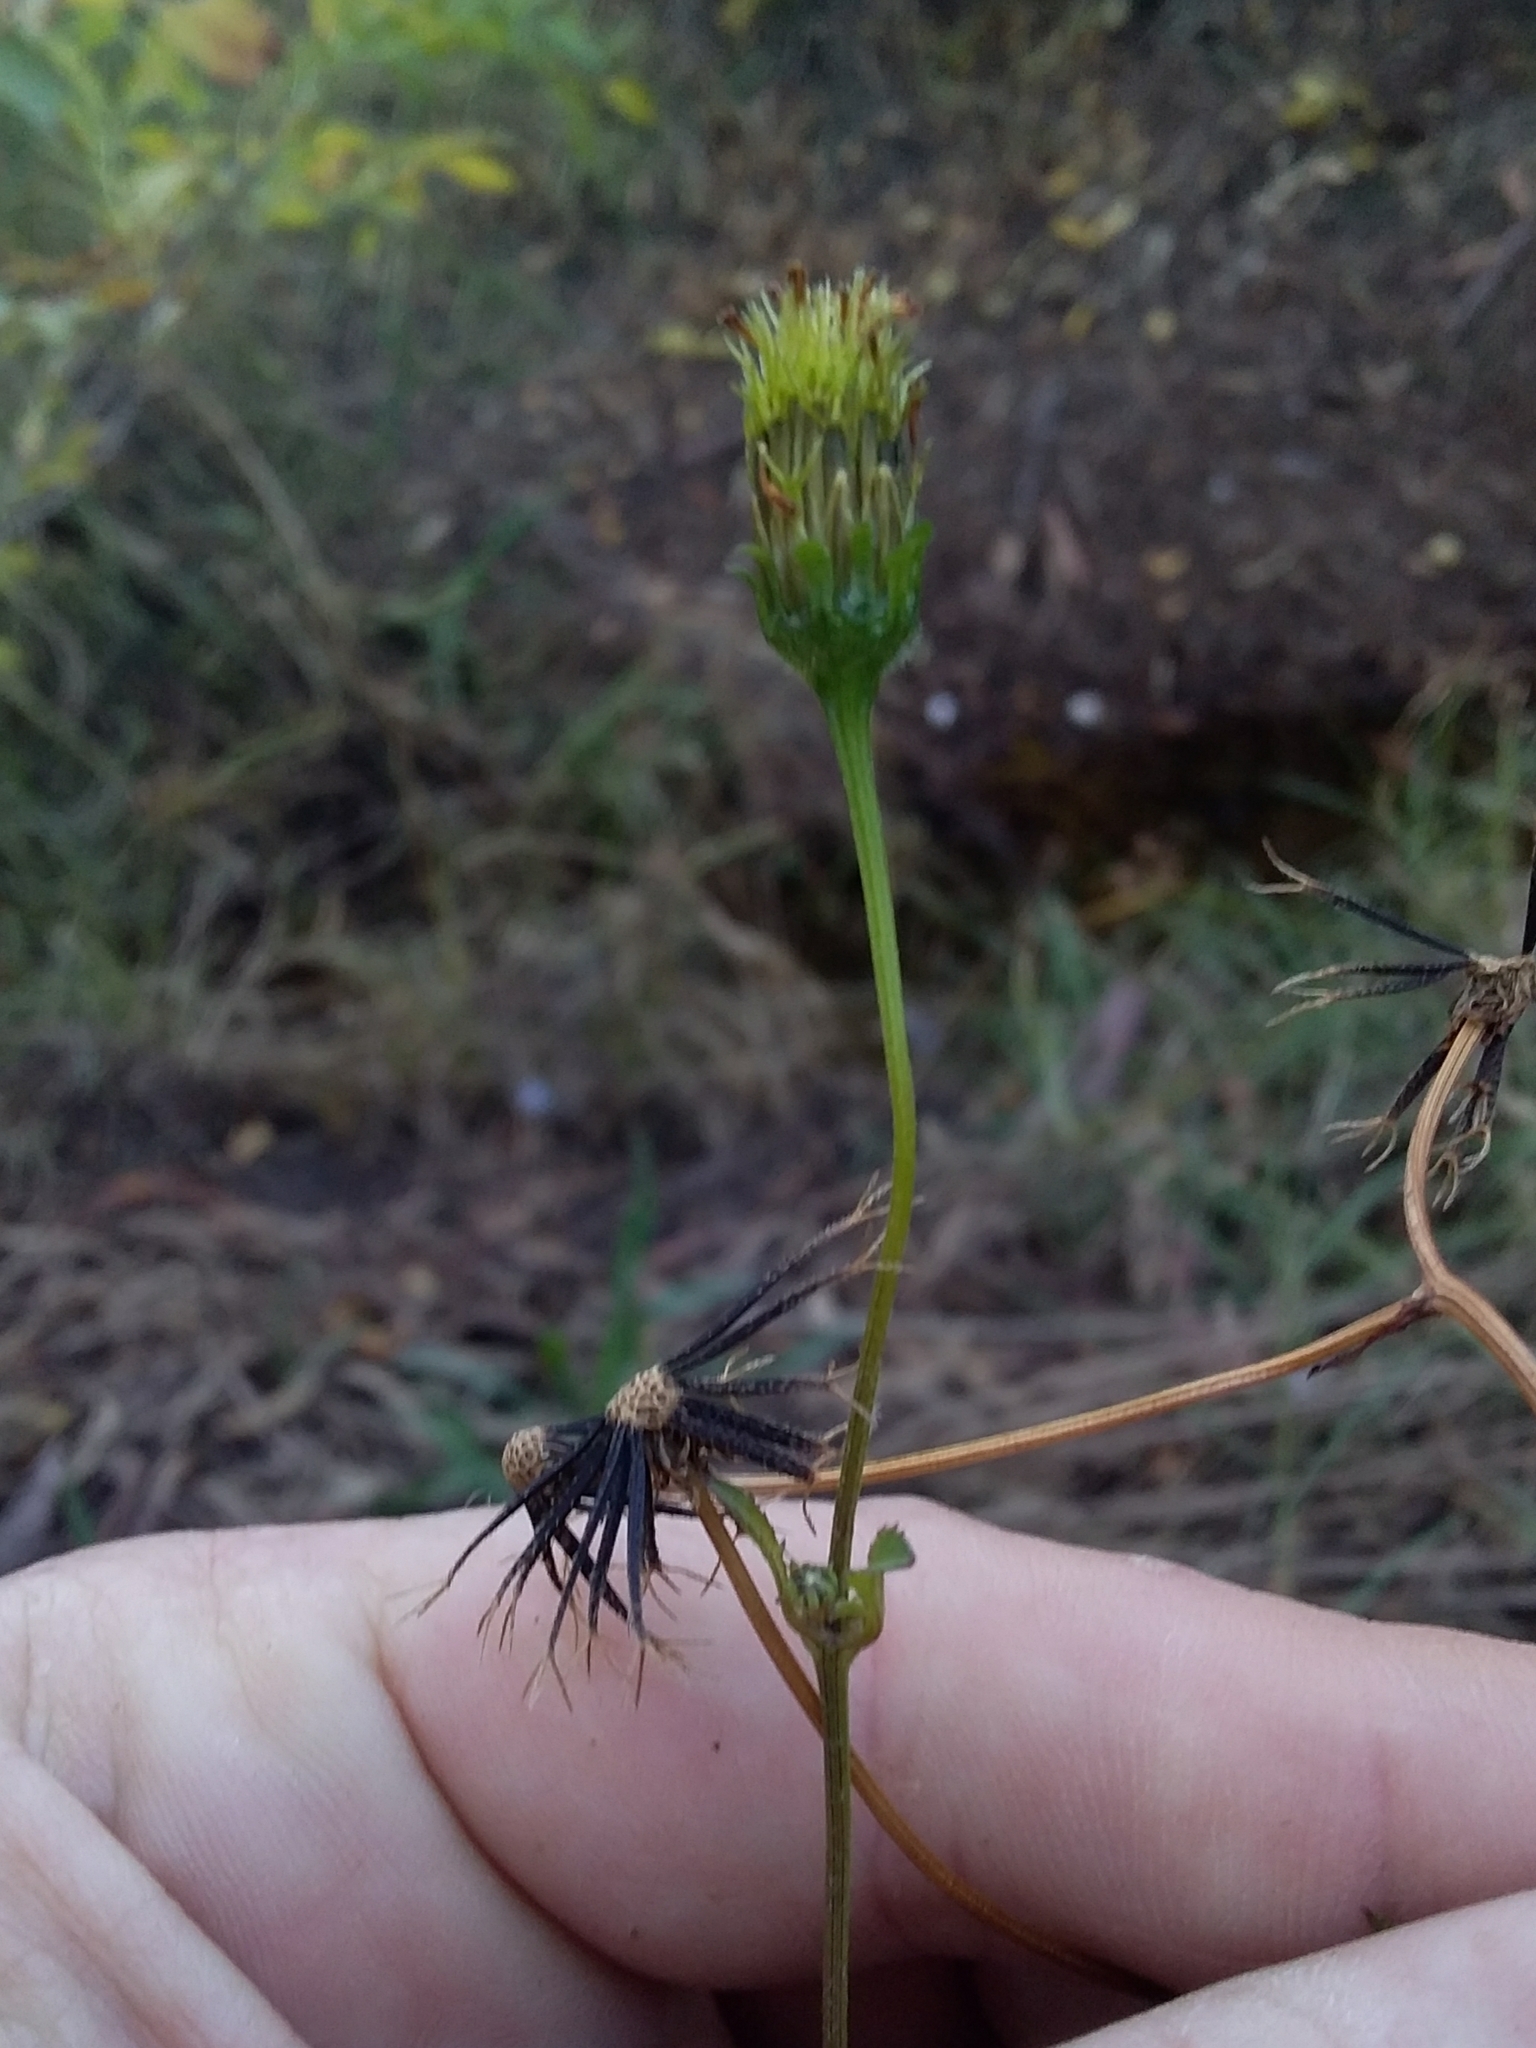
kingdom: Plantae
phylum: Tracheophyta
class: Magnoliopsida
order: Asterales
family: Asteraceae
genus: Bidens
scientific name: Bidens pilosa
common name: Black-jack
